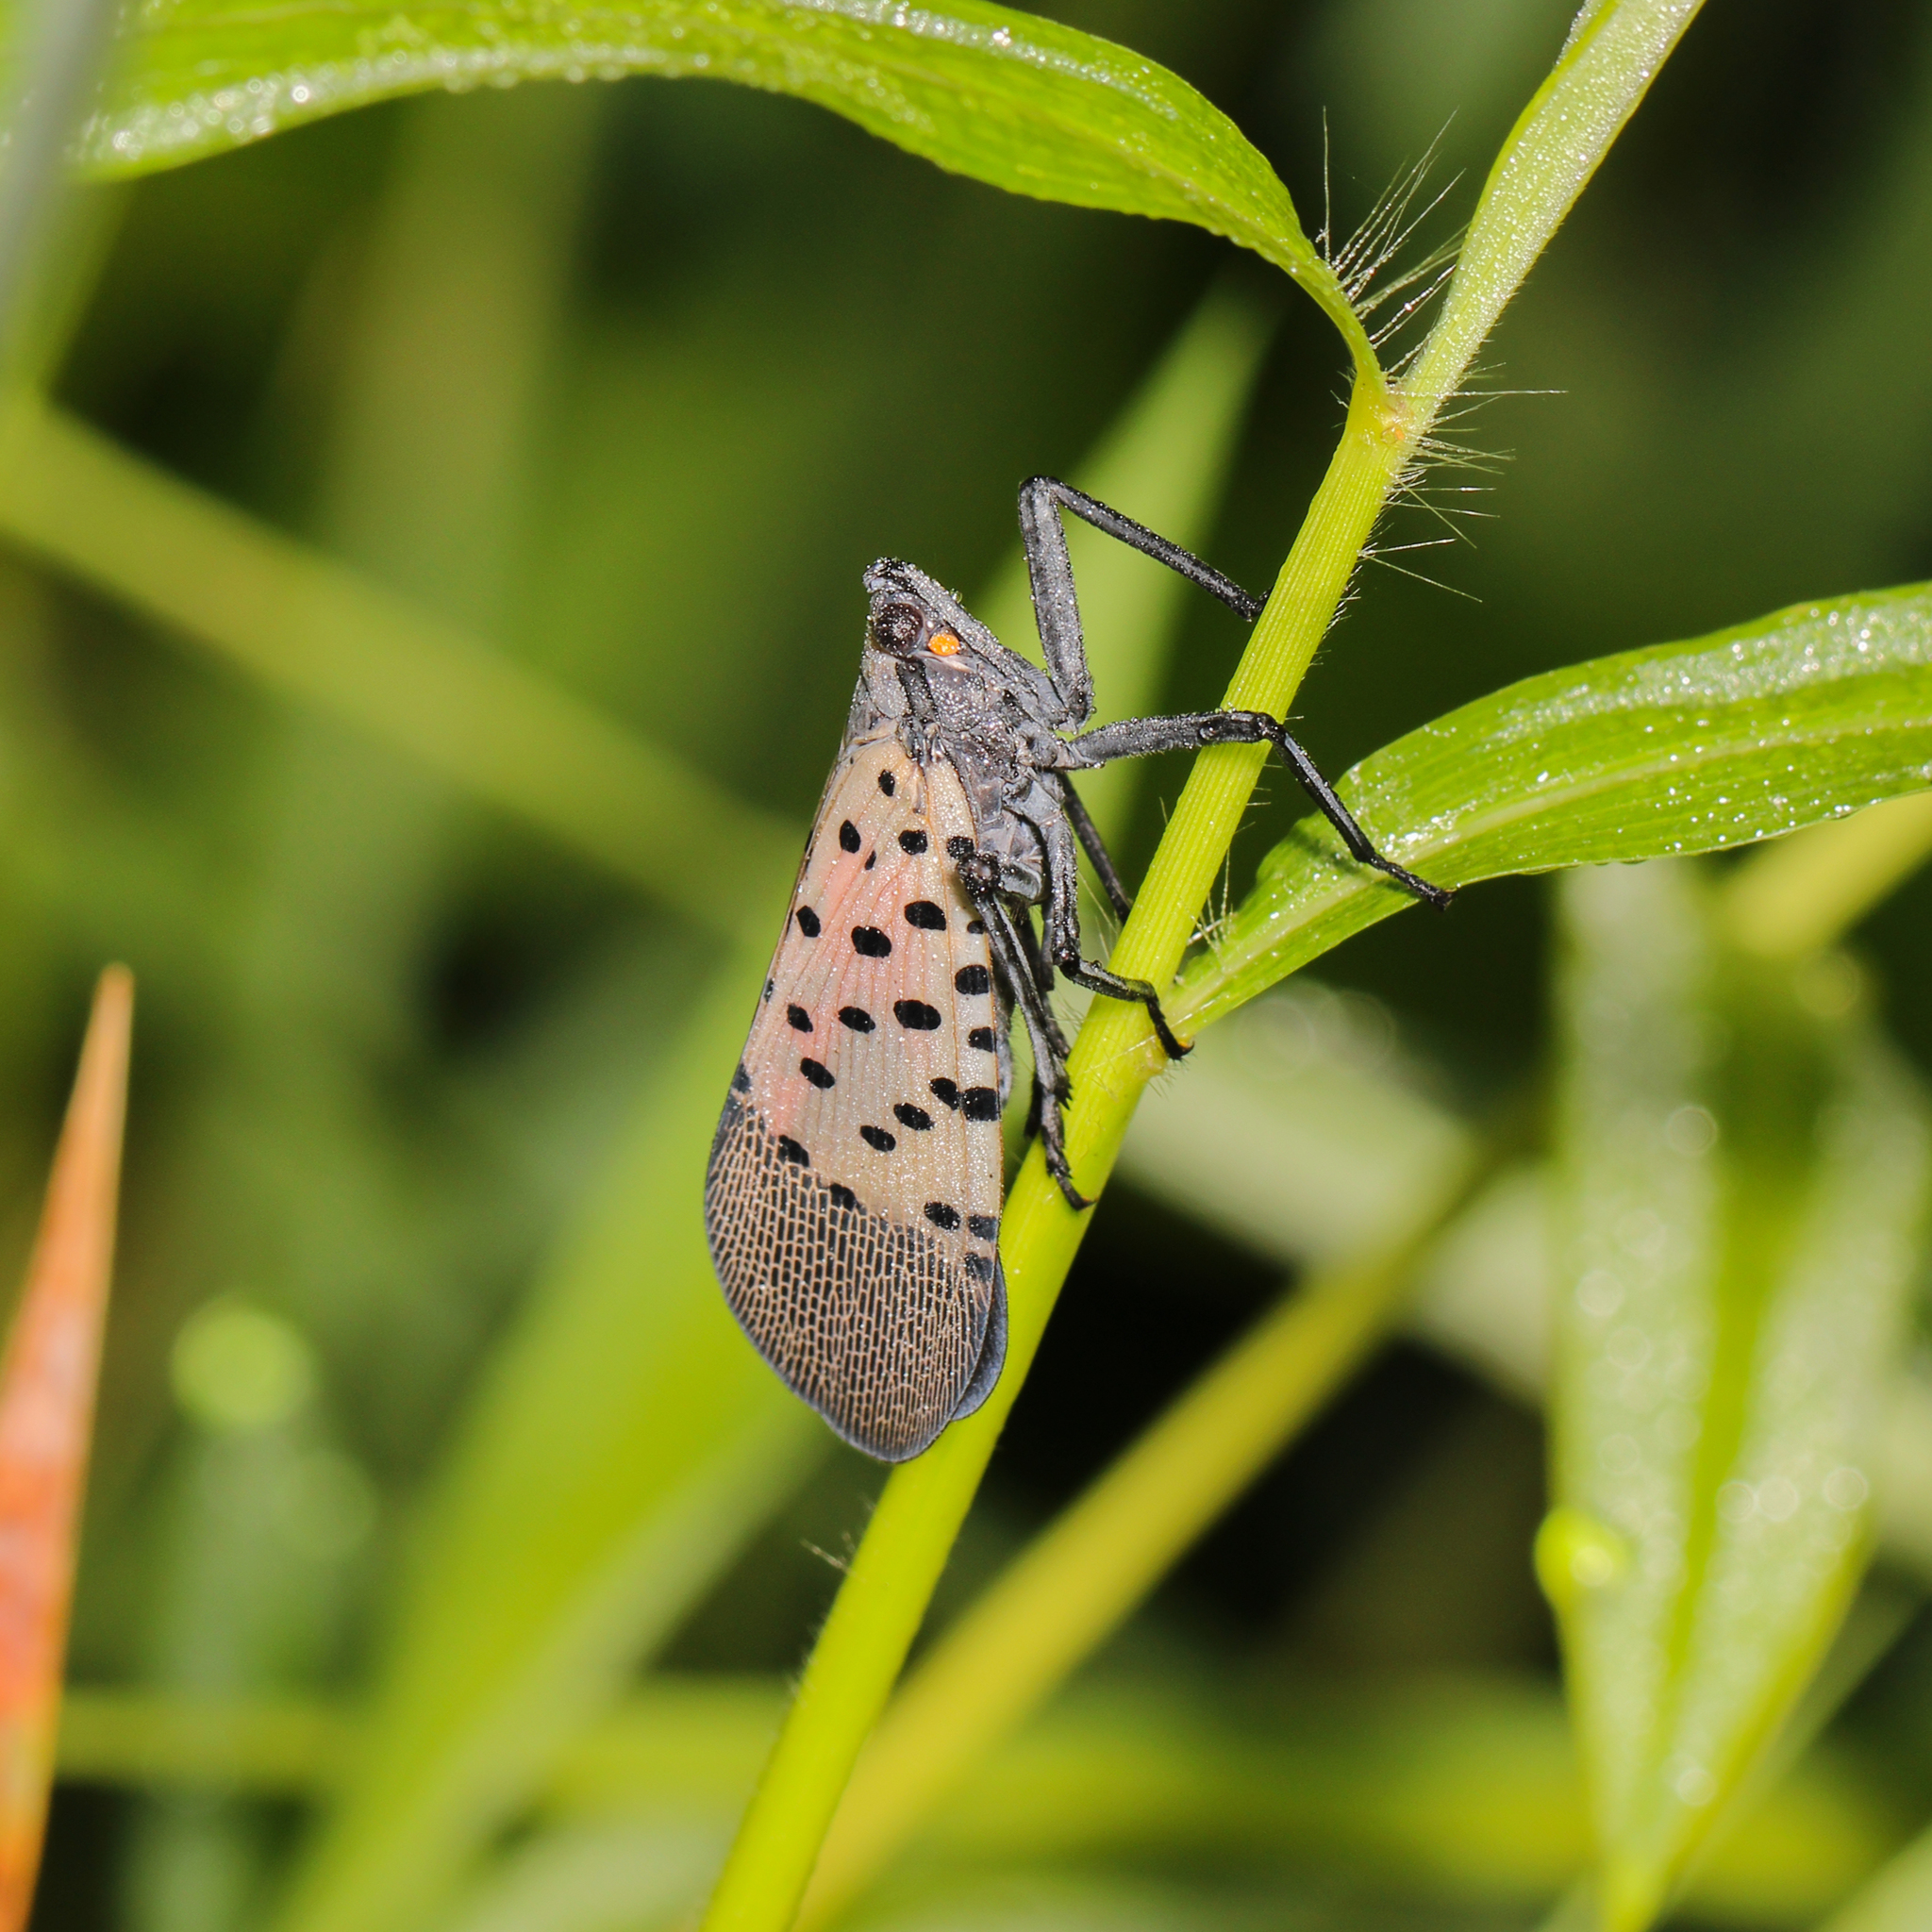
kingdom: Animalia
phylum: Arthropoda
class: Insecta
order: Hemiptera
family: Fulgoridae
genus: Lycorma
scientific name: Lycorma delicatula
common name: Spotted lanternfly
